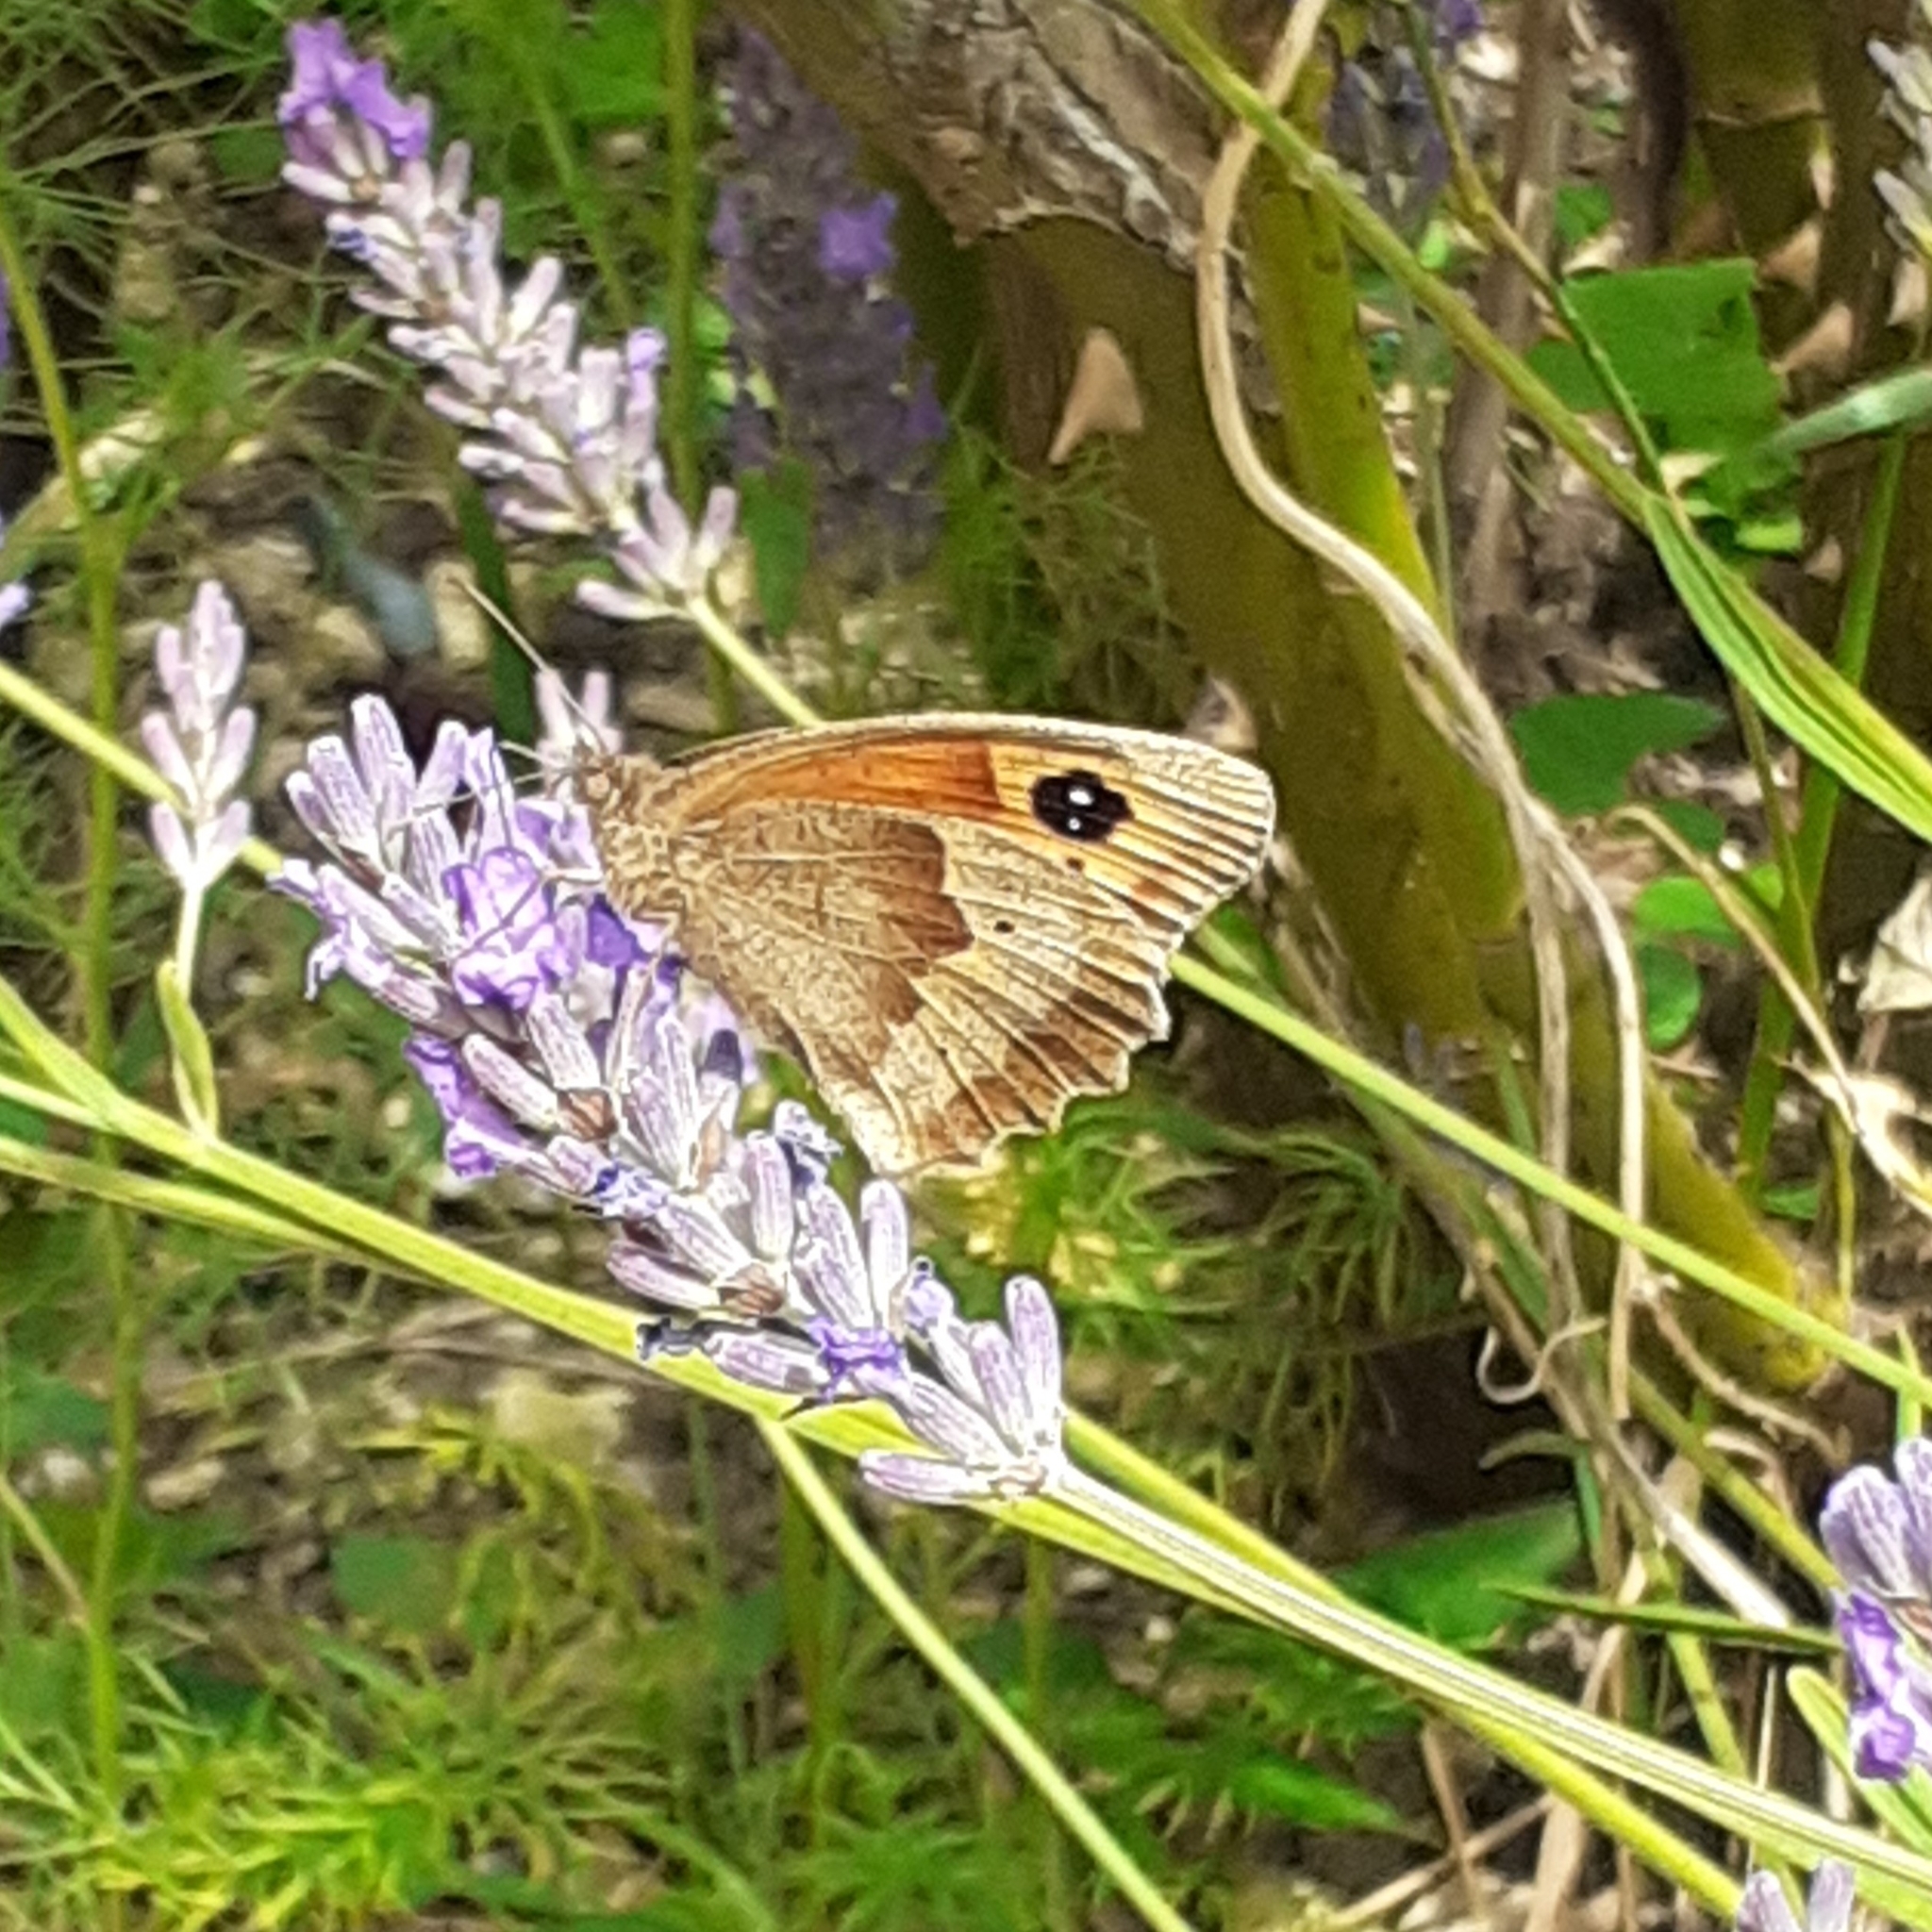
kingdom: Animalia
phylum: Arthropoda
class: Insecta
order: Lepidoptera
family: Nymphalidae
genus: Maniola
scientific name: Maniola jurtina
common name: Meadow brown
